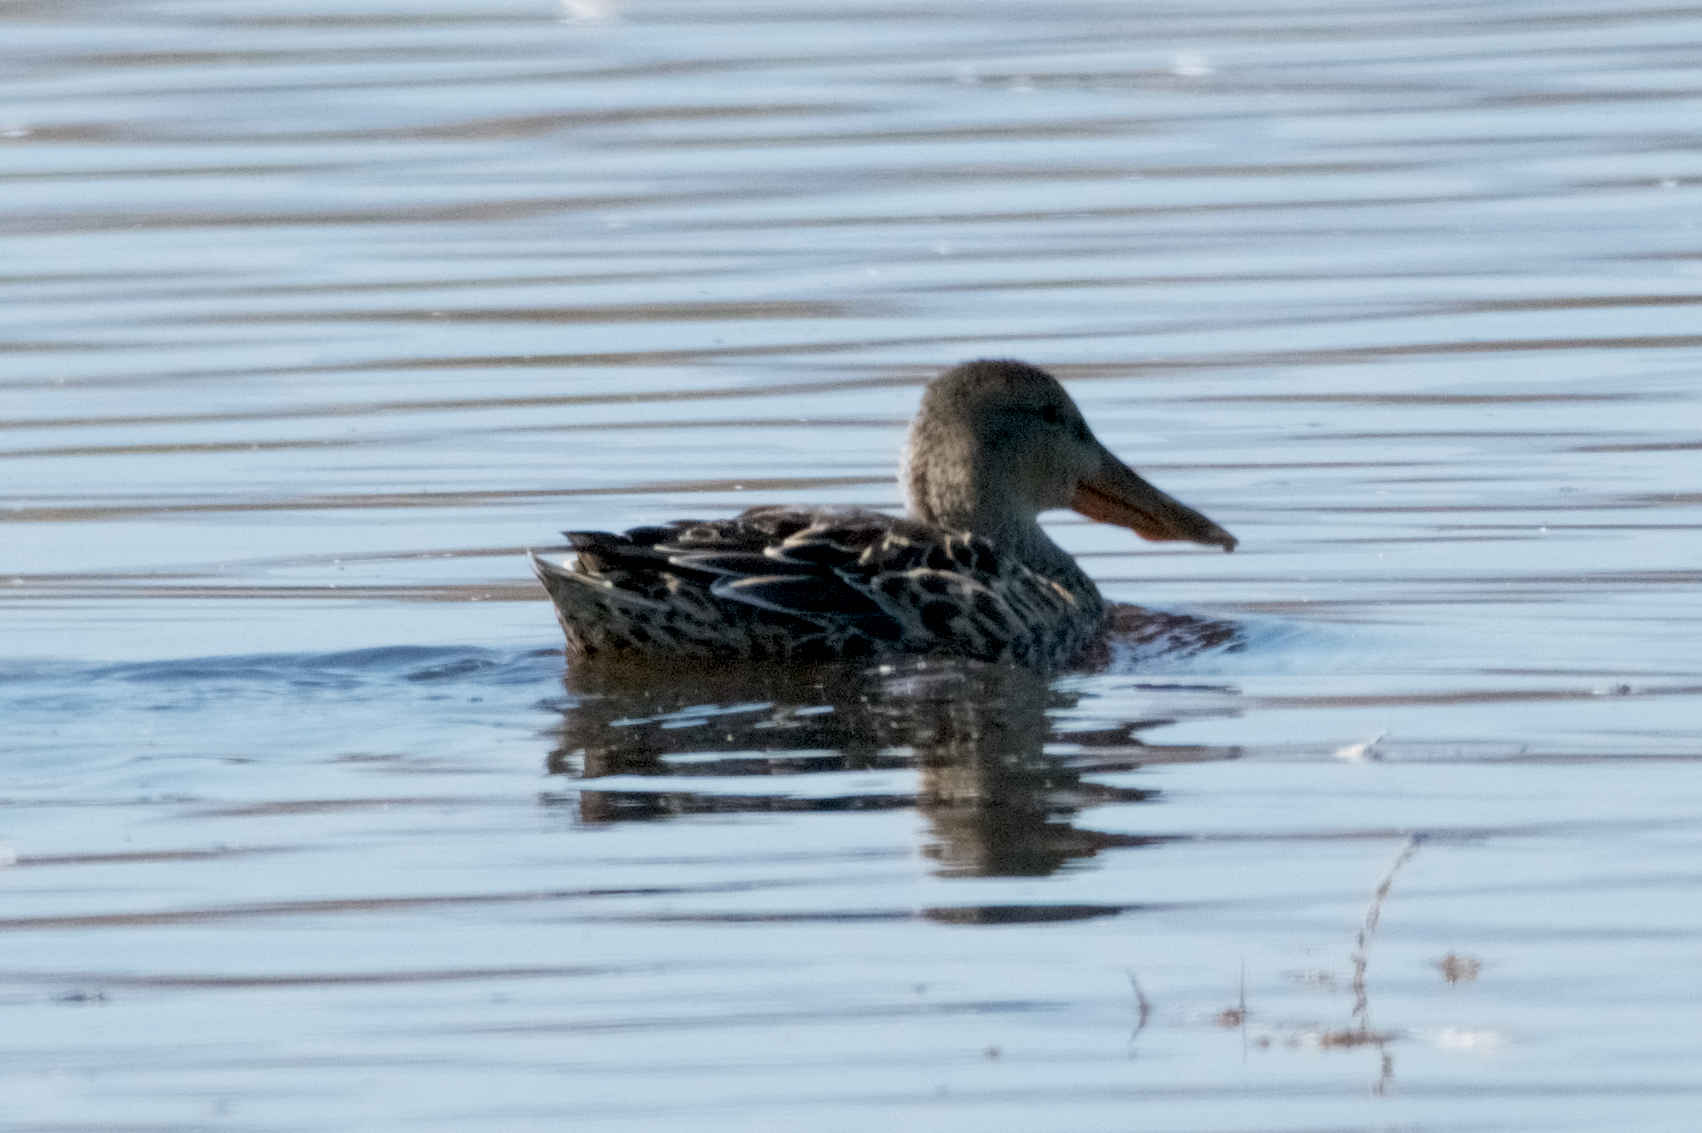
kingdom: Animalia
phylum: Chordata
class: Aves
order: Anseriformes
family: Anatidae
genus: Spatula
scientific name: Spatula clypeata
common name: Northern shoveler
